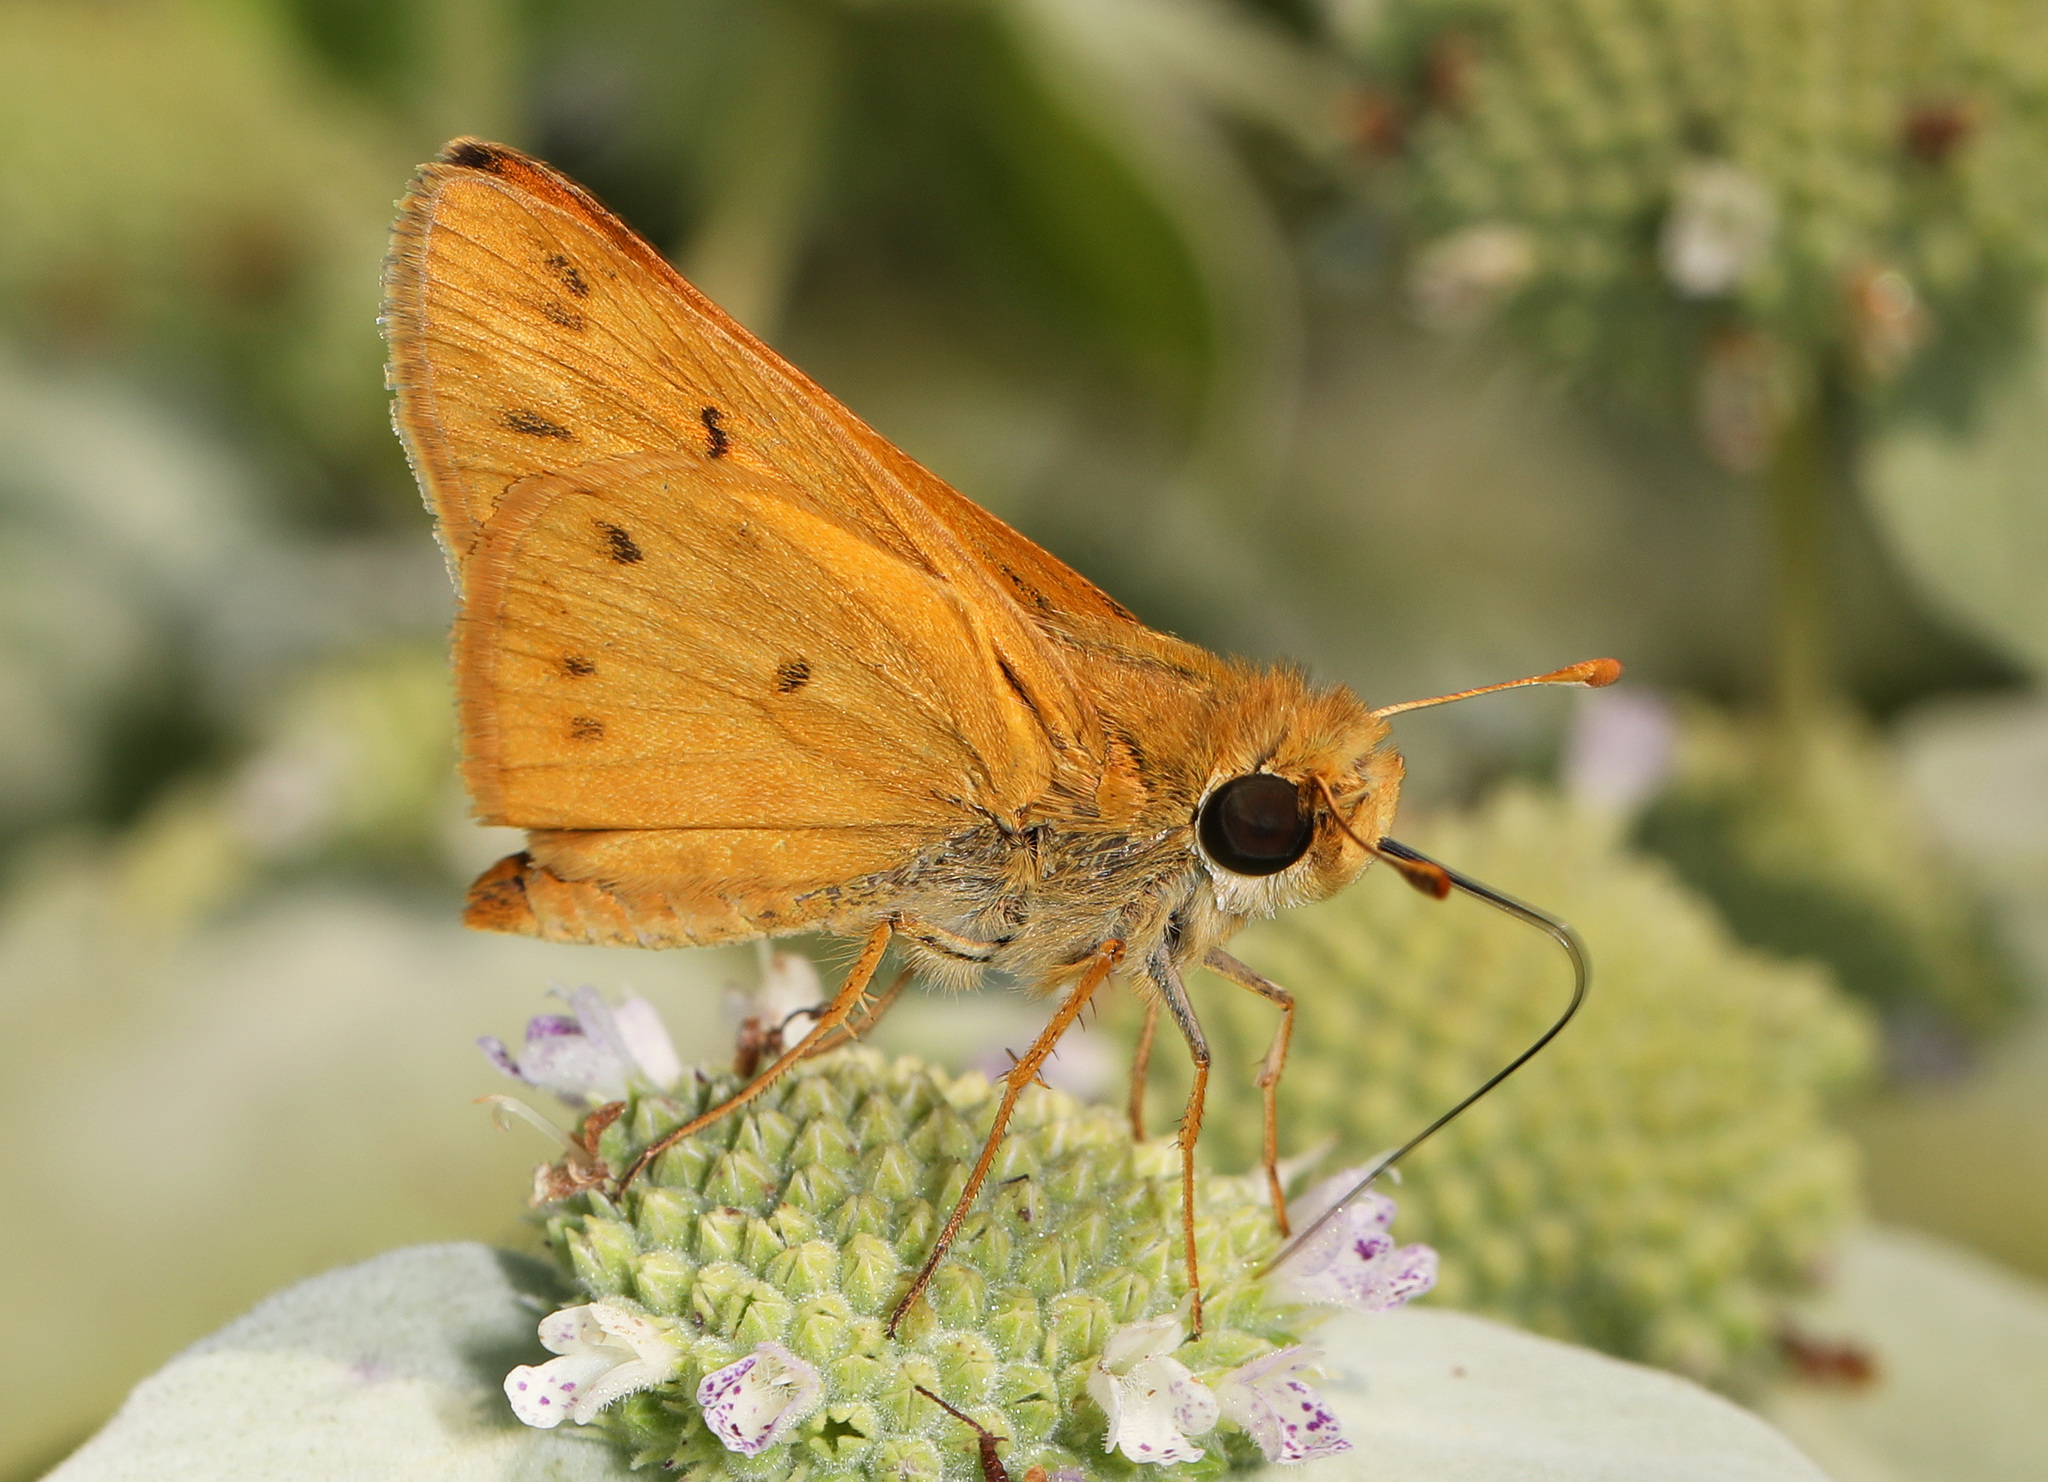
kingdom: Animalia
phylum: Arthropoda
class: Insecta
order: Lepidoptera
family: Hesperiidae
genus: Hylephila
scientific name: Hylephila phyleus
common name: Fiery skipper
